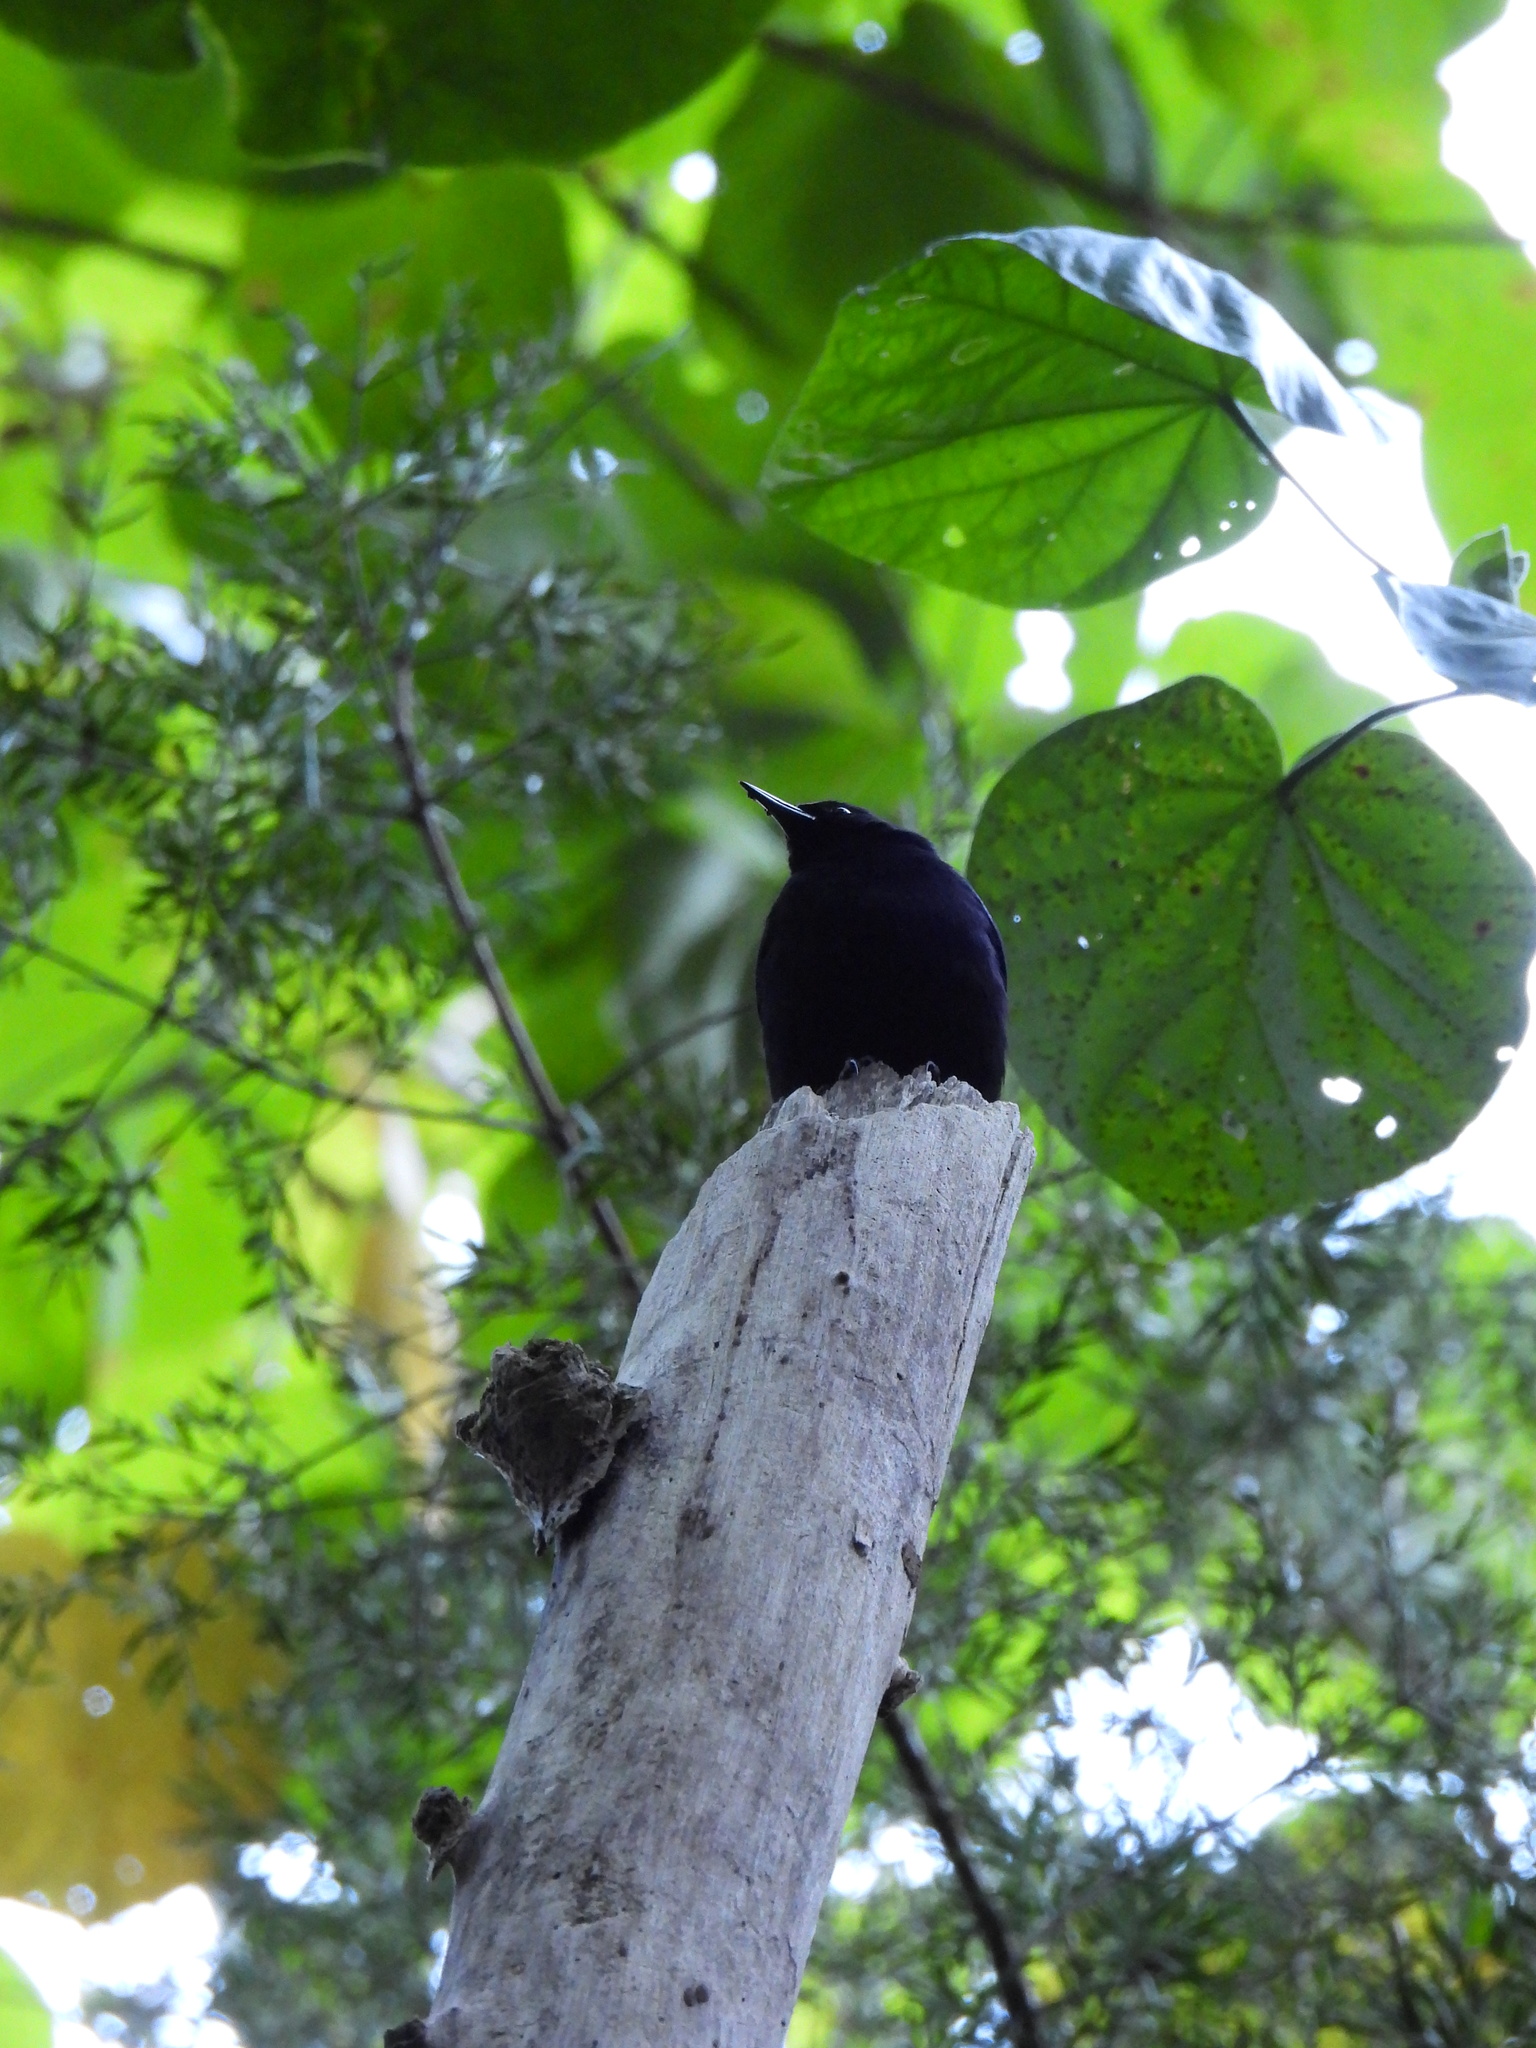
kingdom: Animalia
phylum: Chordata
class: Aves
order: Passeriformes
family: Icteridae
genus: Nesopsar
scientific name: Nesopsar nigerrimus
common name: Jamaican blackbird
